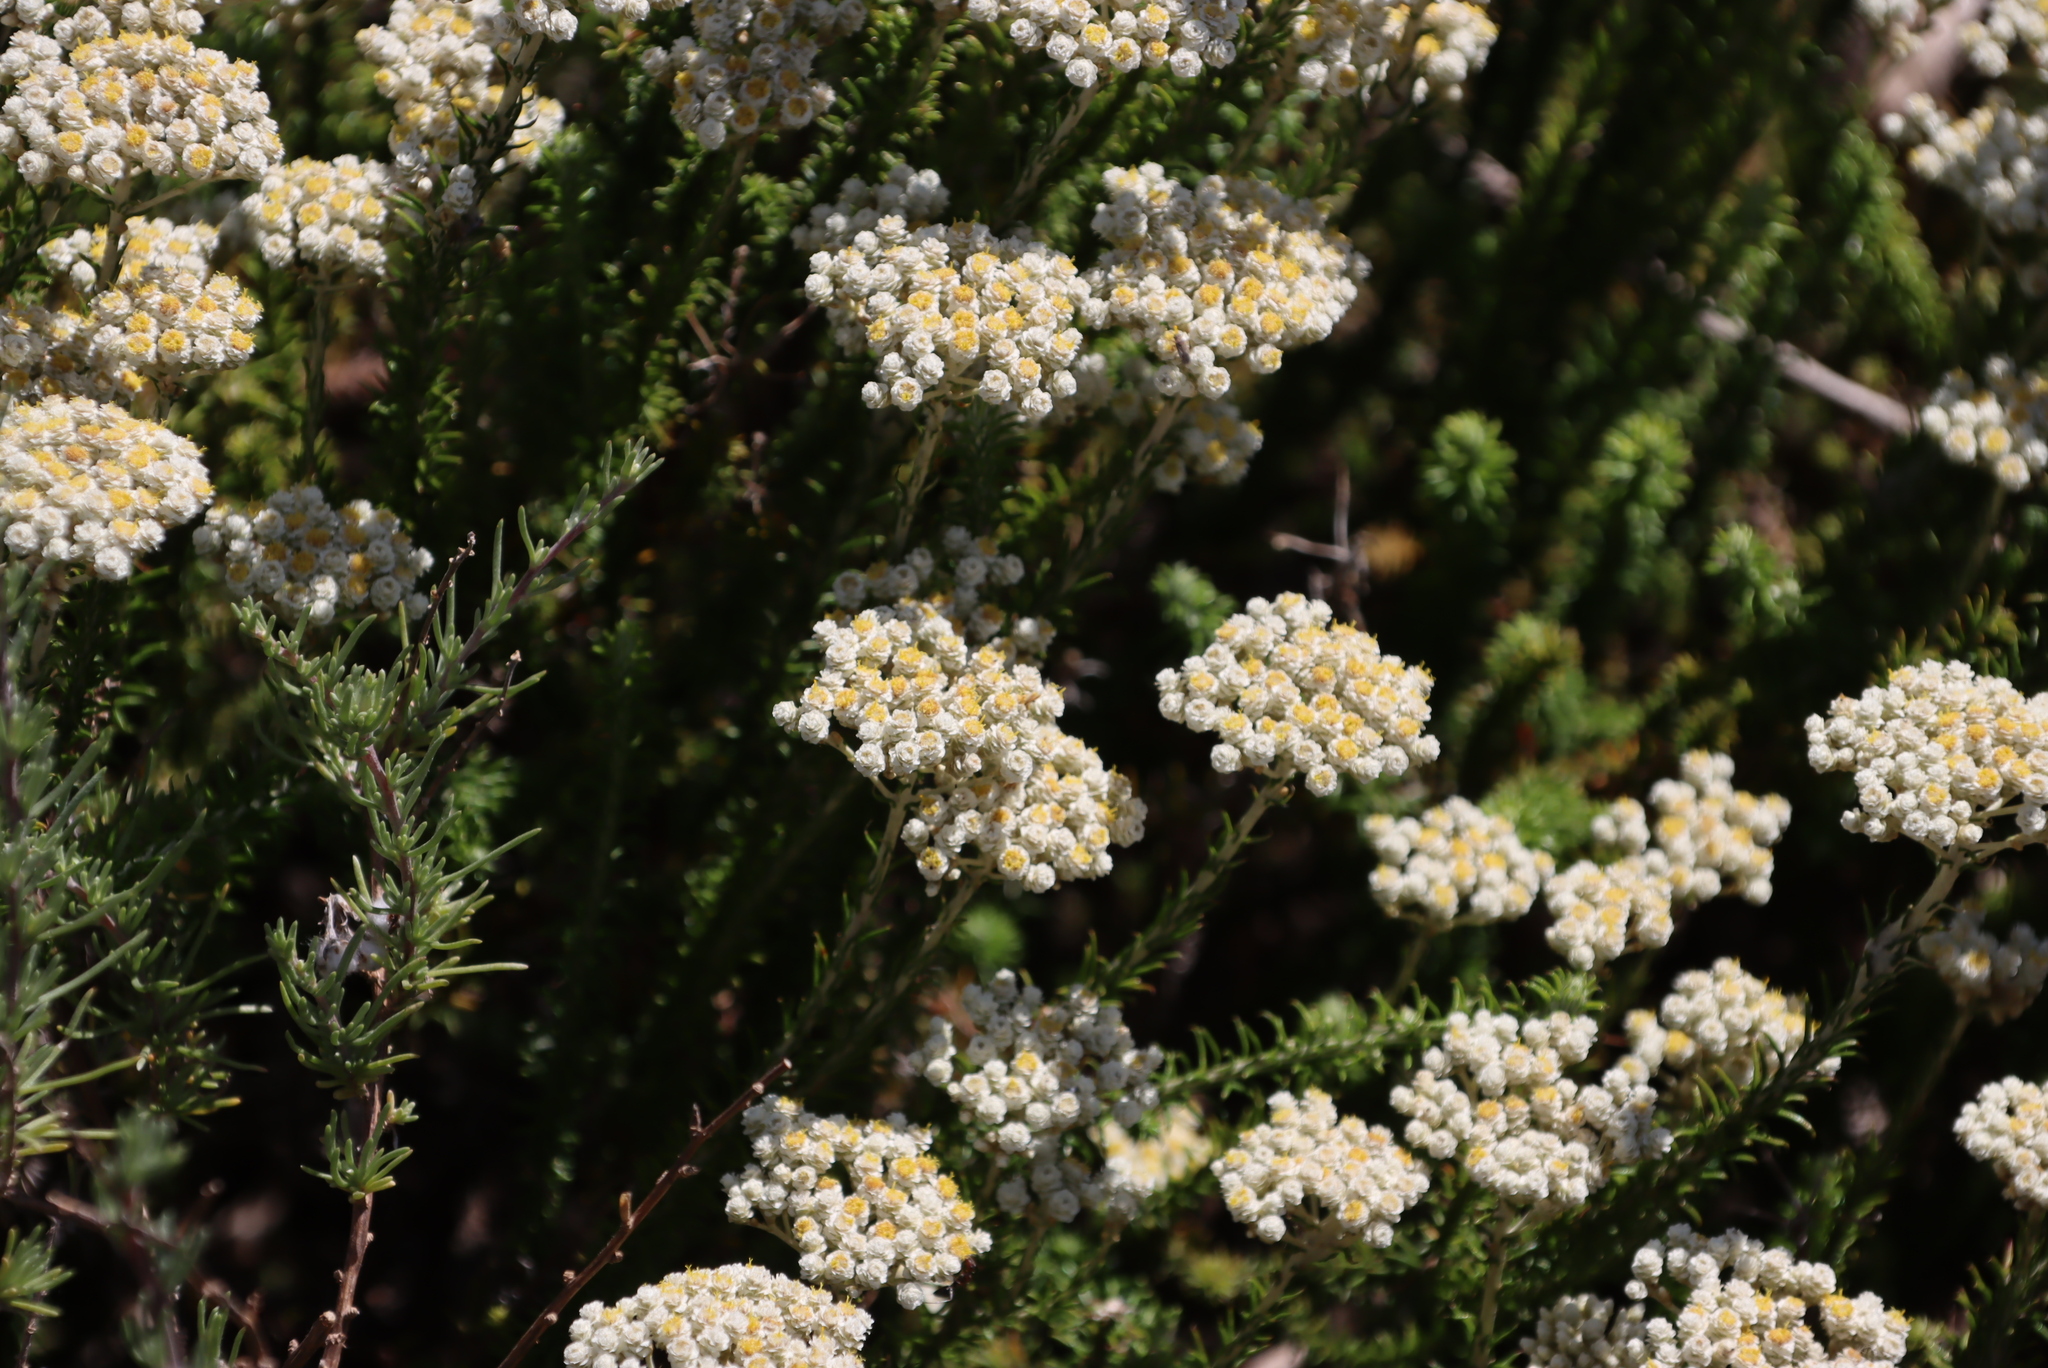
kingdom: Plantae
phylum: Tracheophyta
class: Magnoliopsida
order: Asterales
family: Asteraceae
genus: Helichrysum
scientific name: Helichrysum teretifolium
